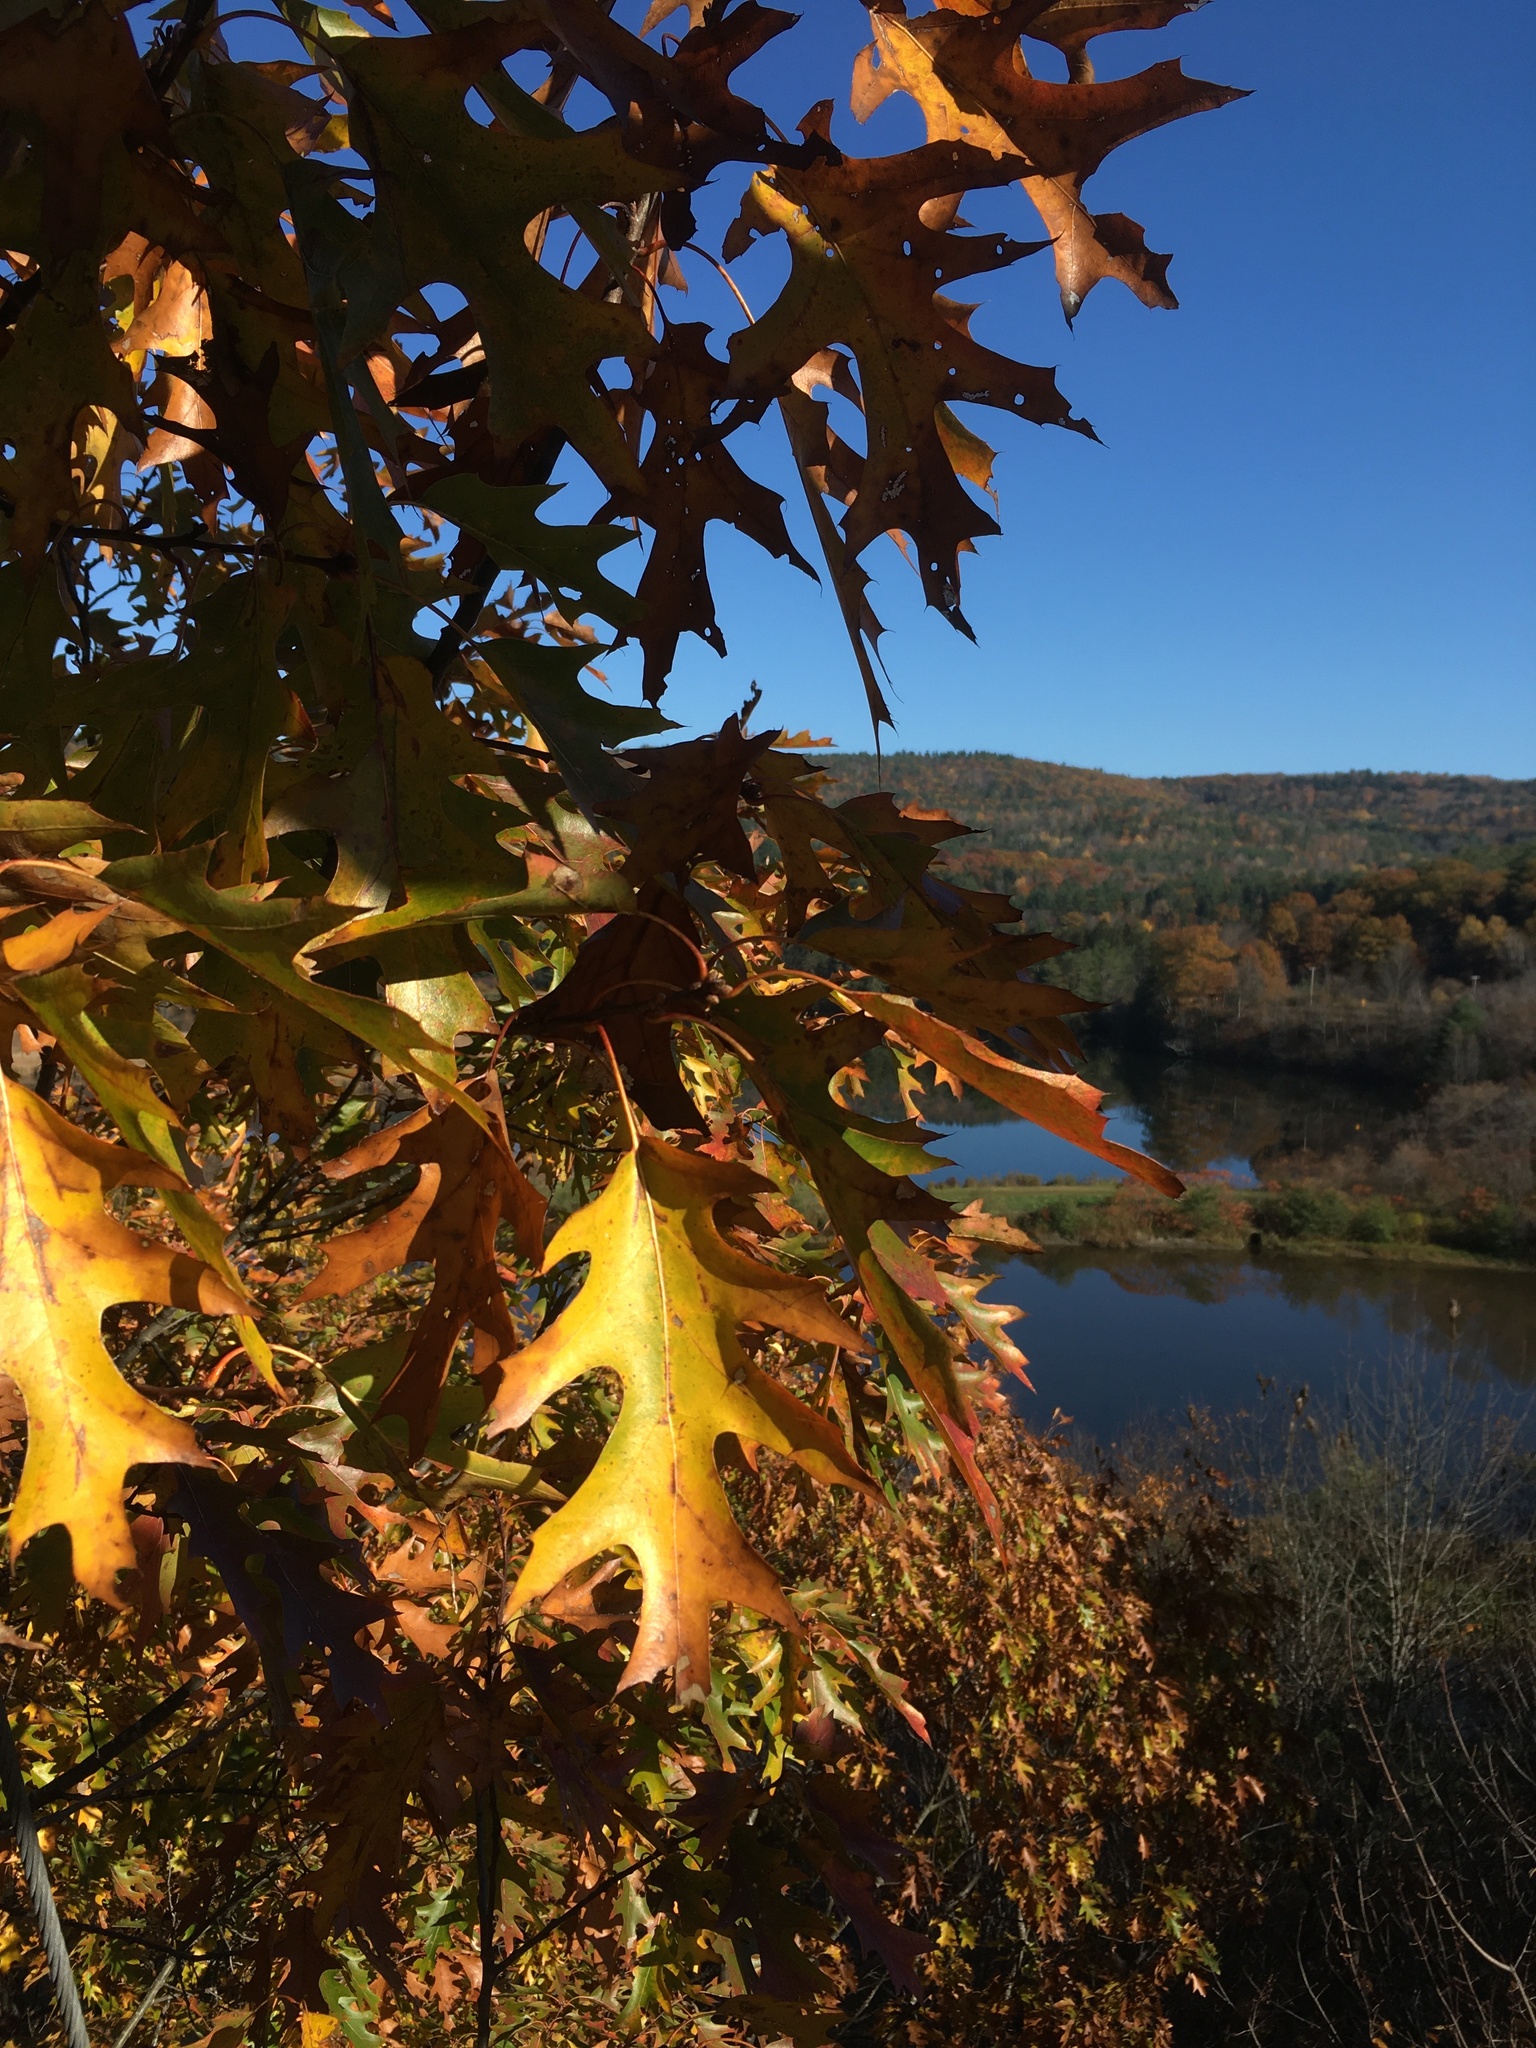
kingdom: Plantae
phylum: Tracheophyta
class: Magnoliopsida
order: Fagales
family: Fagaceae
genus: Quercus
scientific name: Quercus rubra
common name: Red oak
